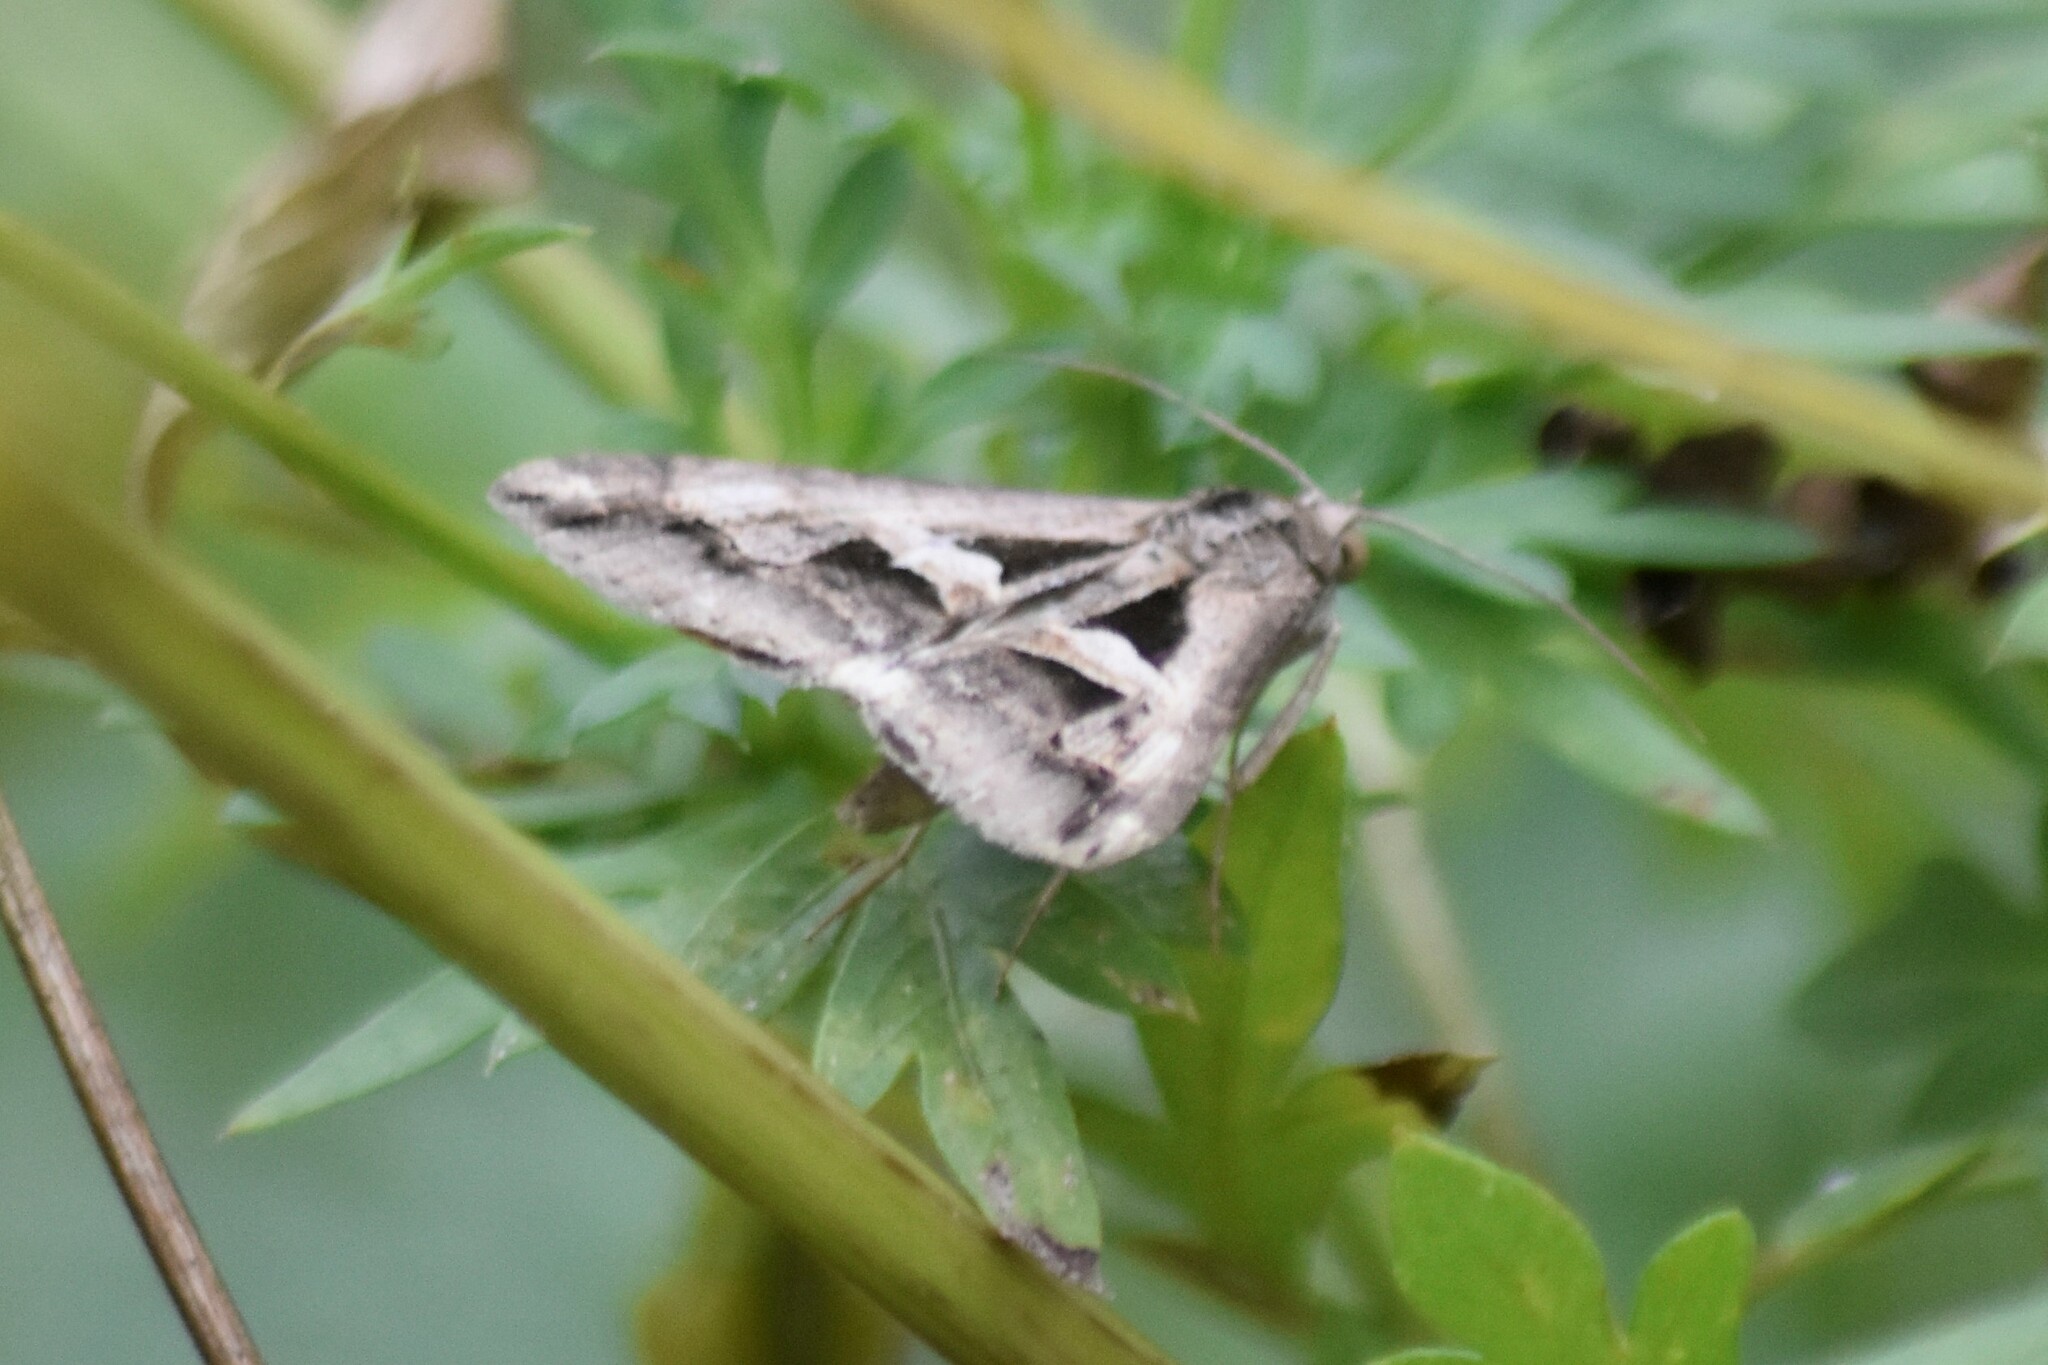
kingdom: Animalia
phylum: Arthropoda
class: Insecta
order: Lepidoptera
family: Erebidae
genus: Melipotis
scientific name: Melipotis cellaris
